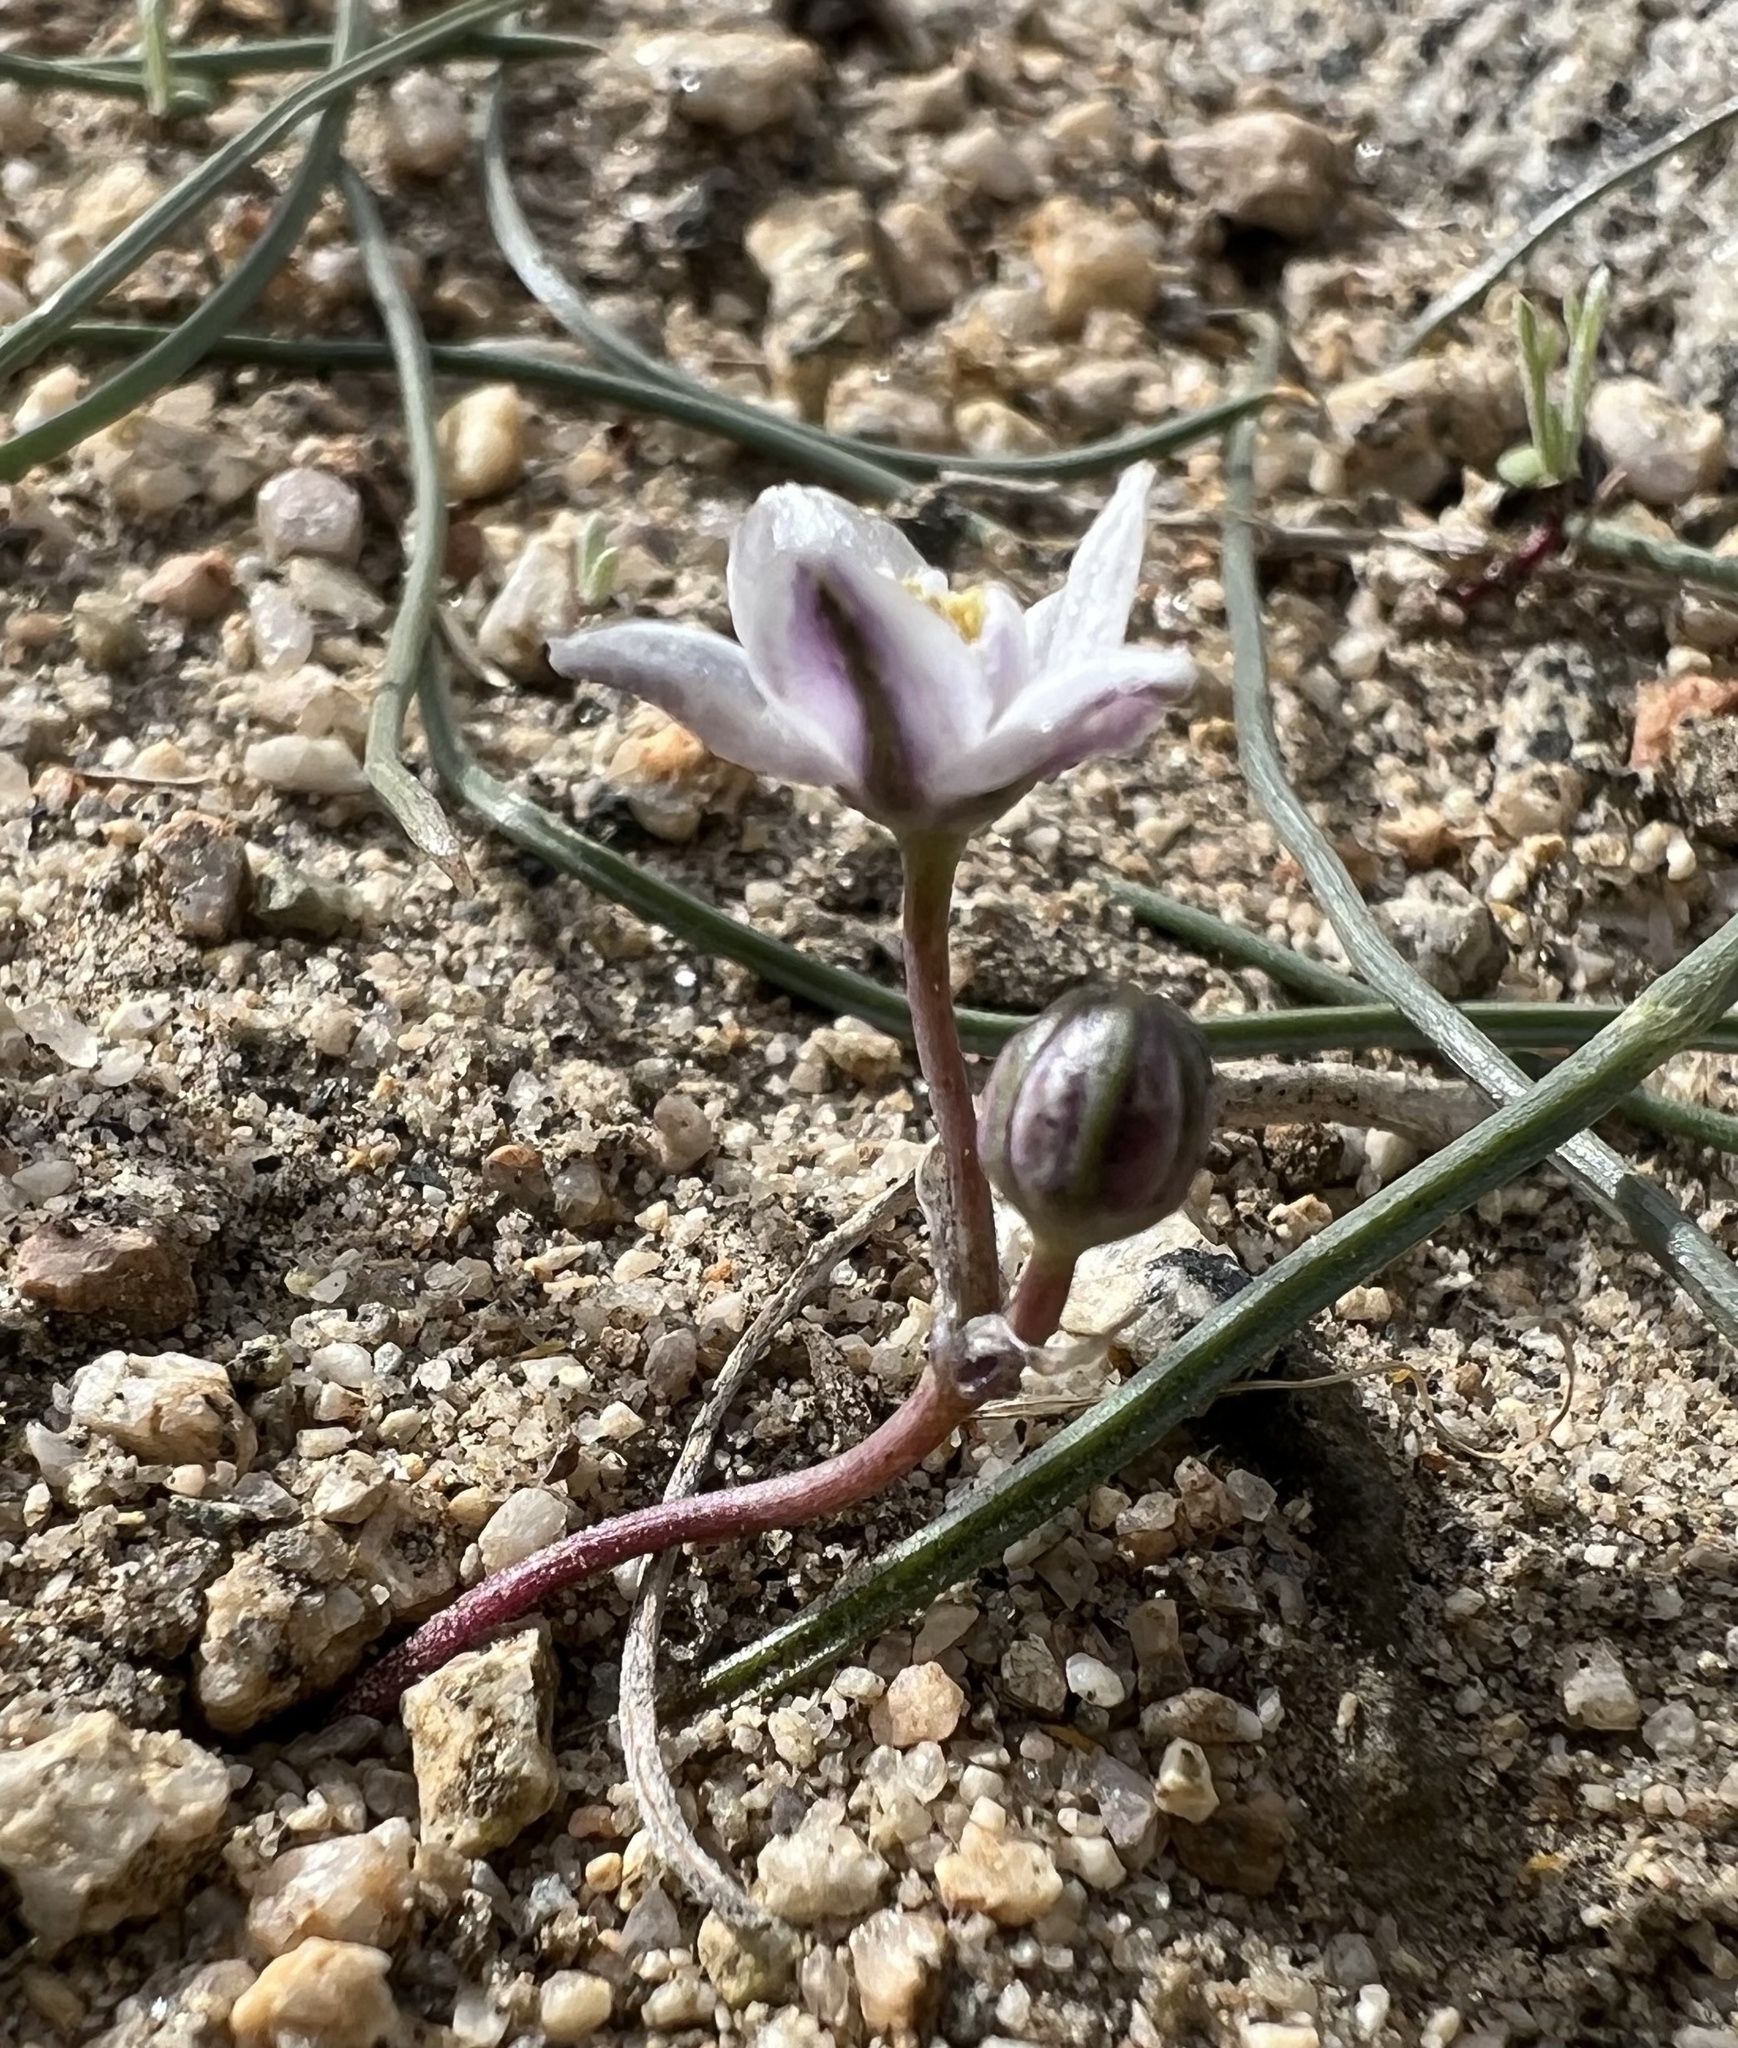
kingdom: Plantae
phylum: Tracheophyta
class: Liliopsida
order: Asparagales
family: Asparagaceae
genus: Muilla
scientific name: Muilla coronata
